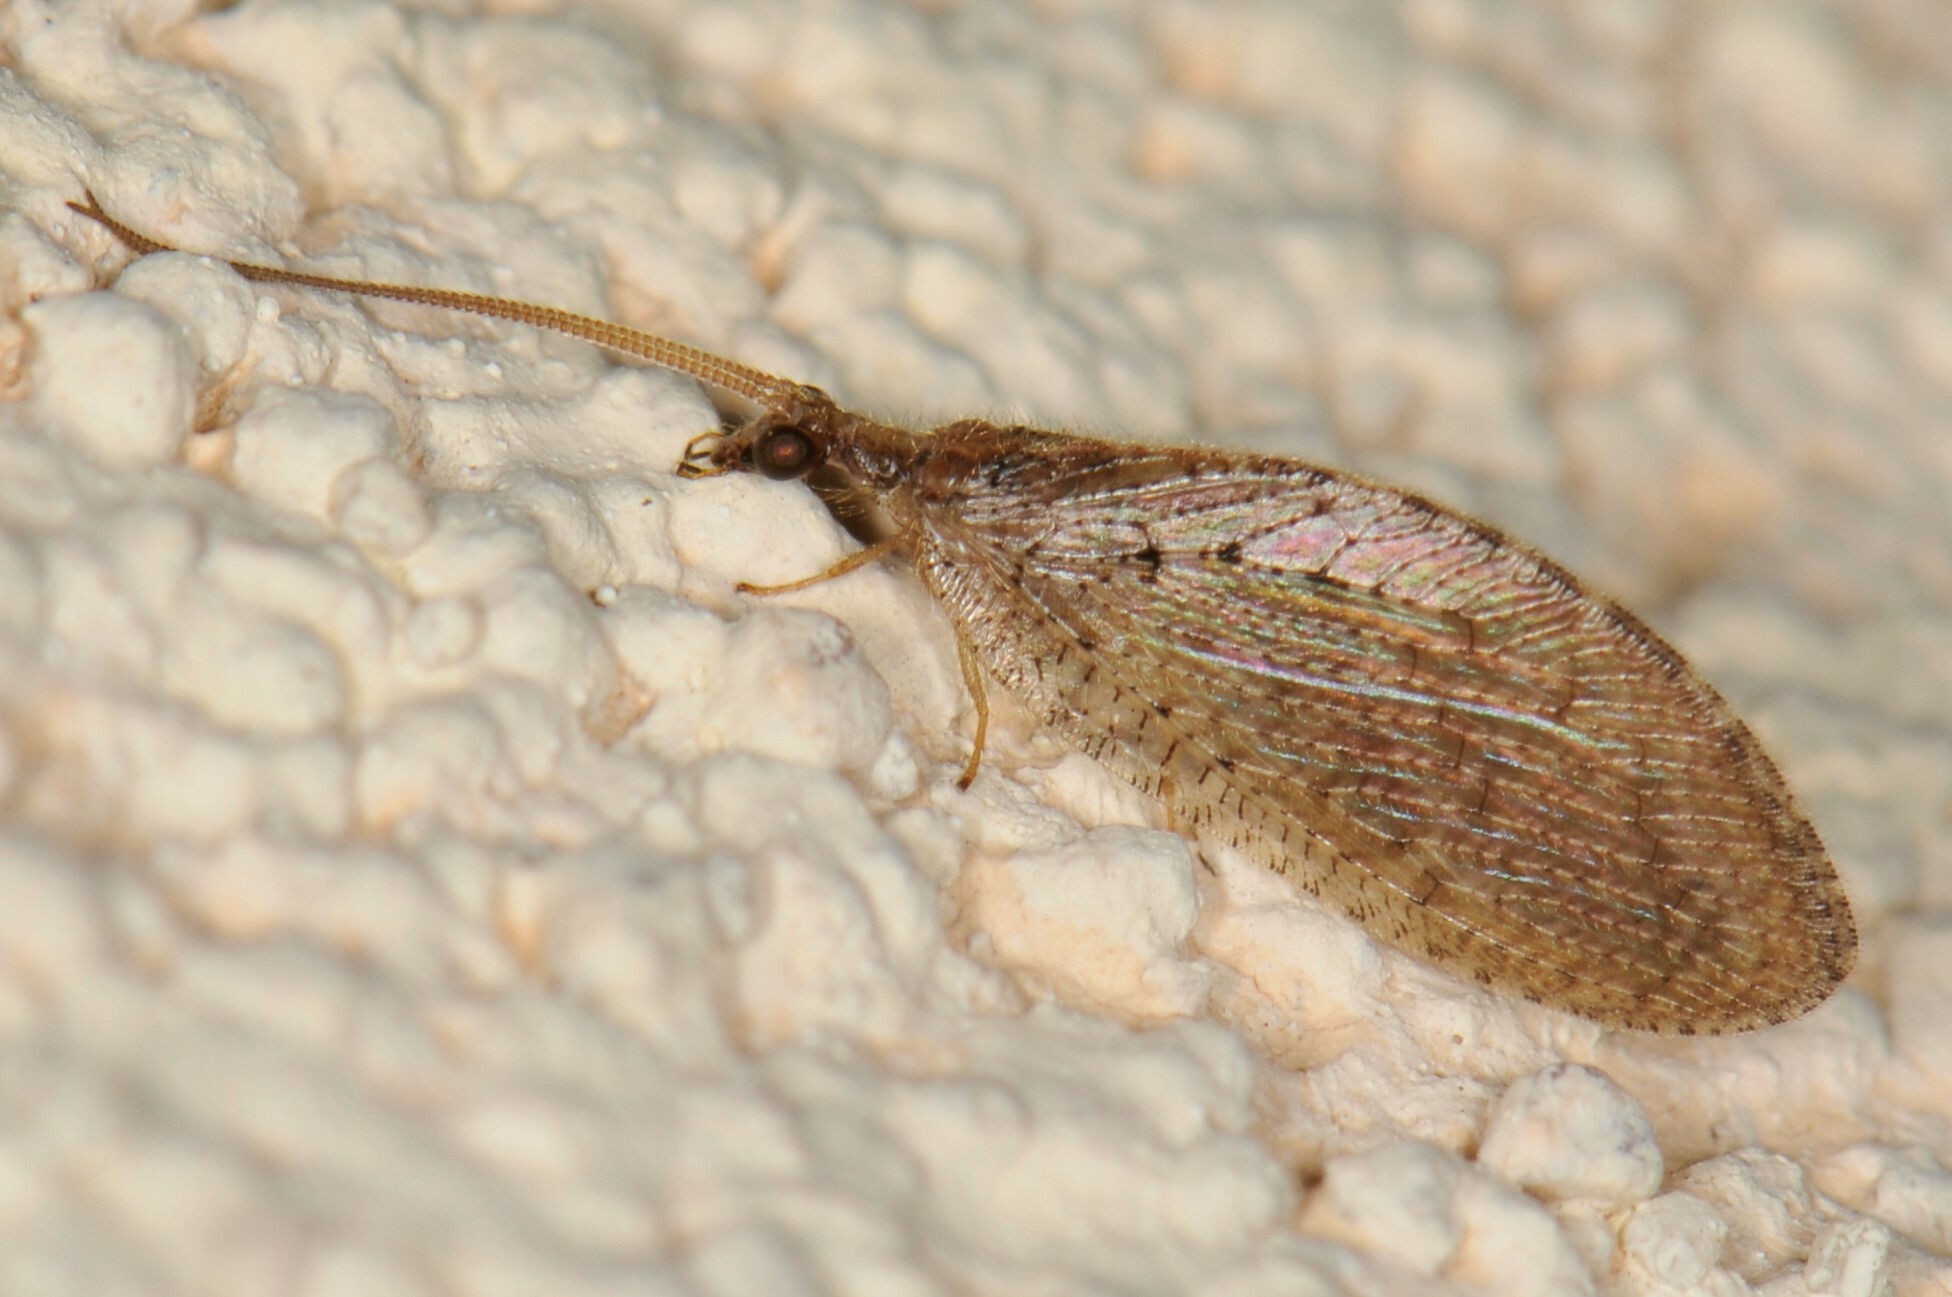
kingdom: Animalia
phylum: Arthropoda
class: Insecta
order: Neuroptera
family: Hemerobiidae
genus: Hemerobius
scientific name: Hemerobius
